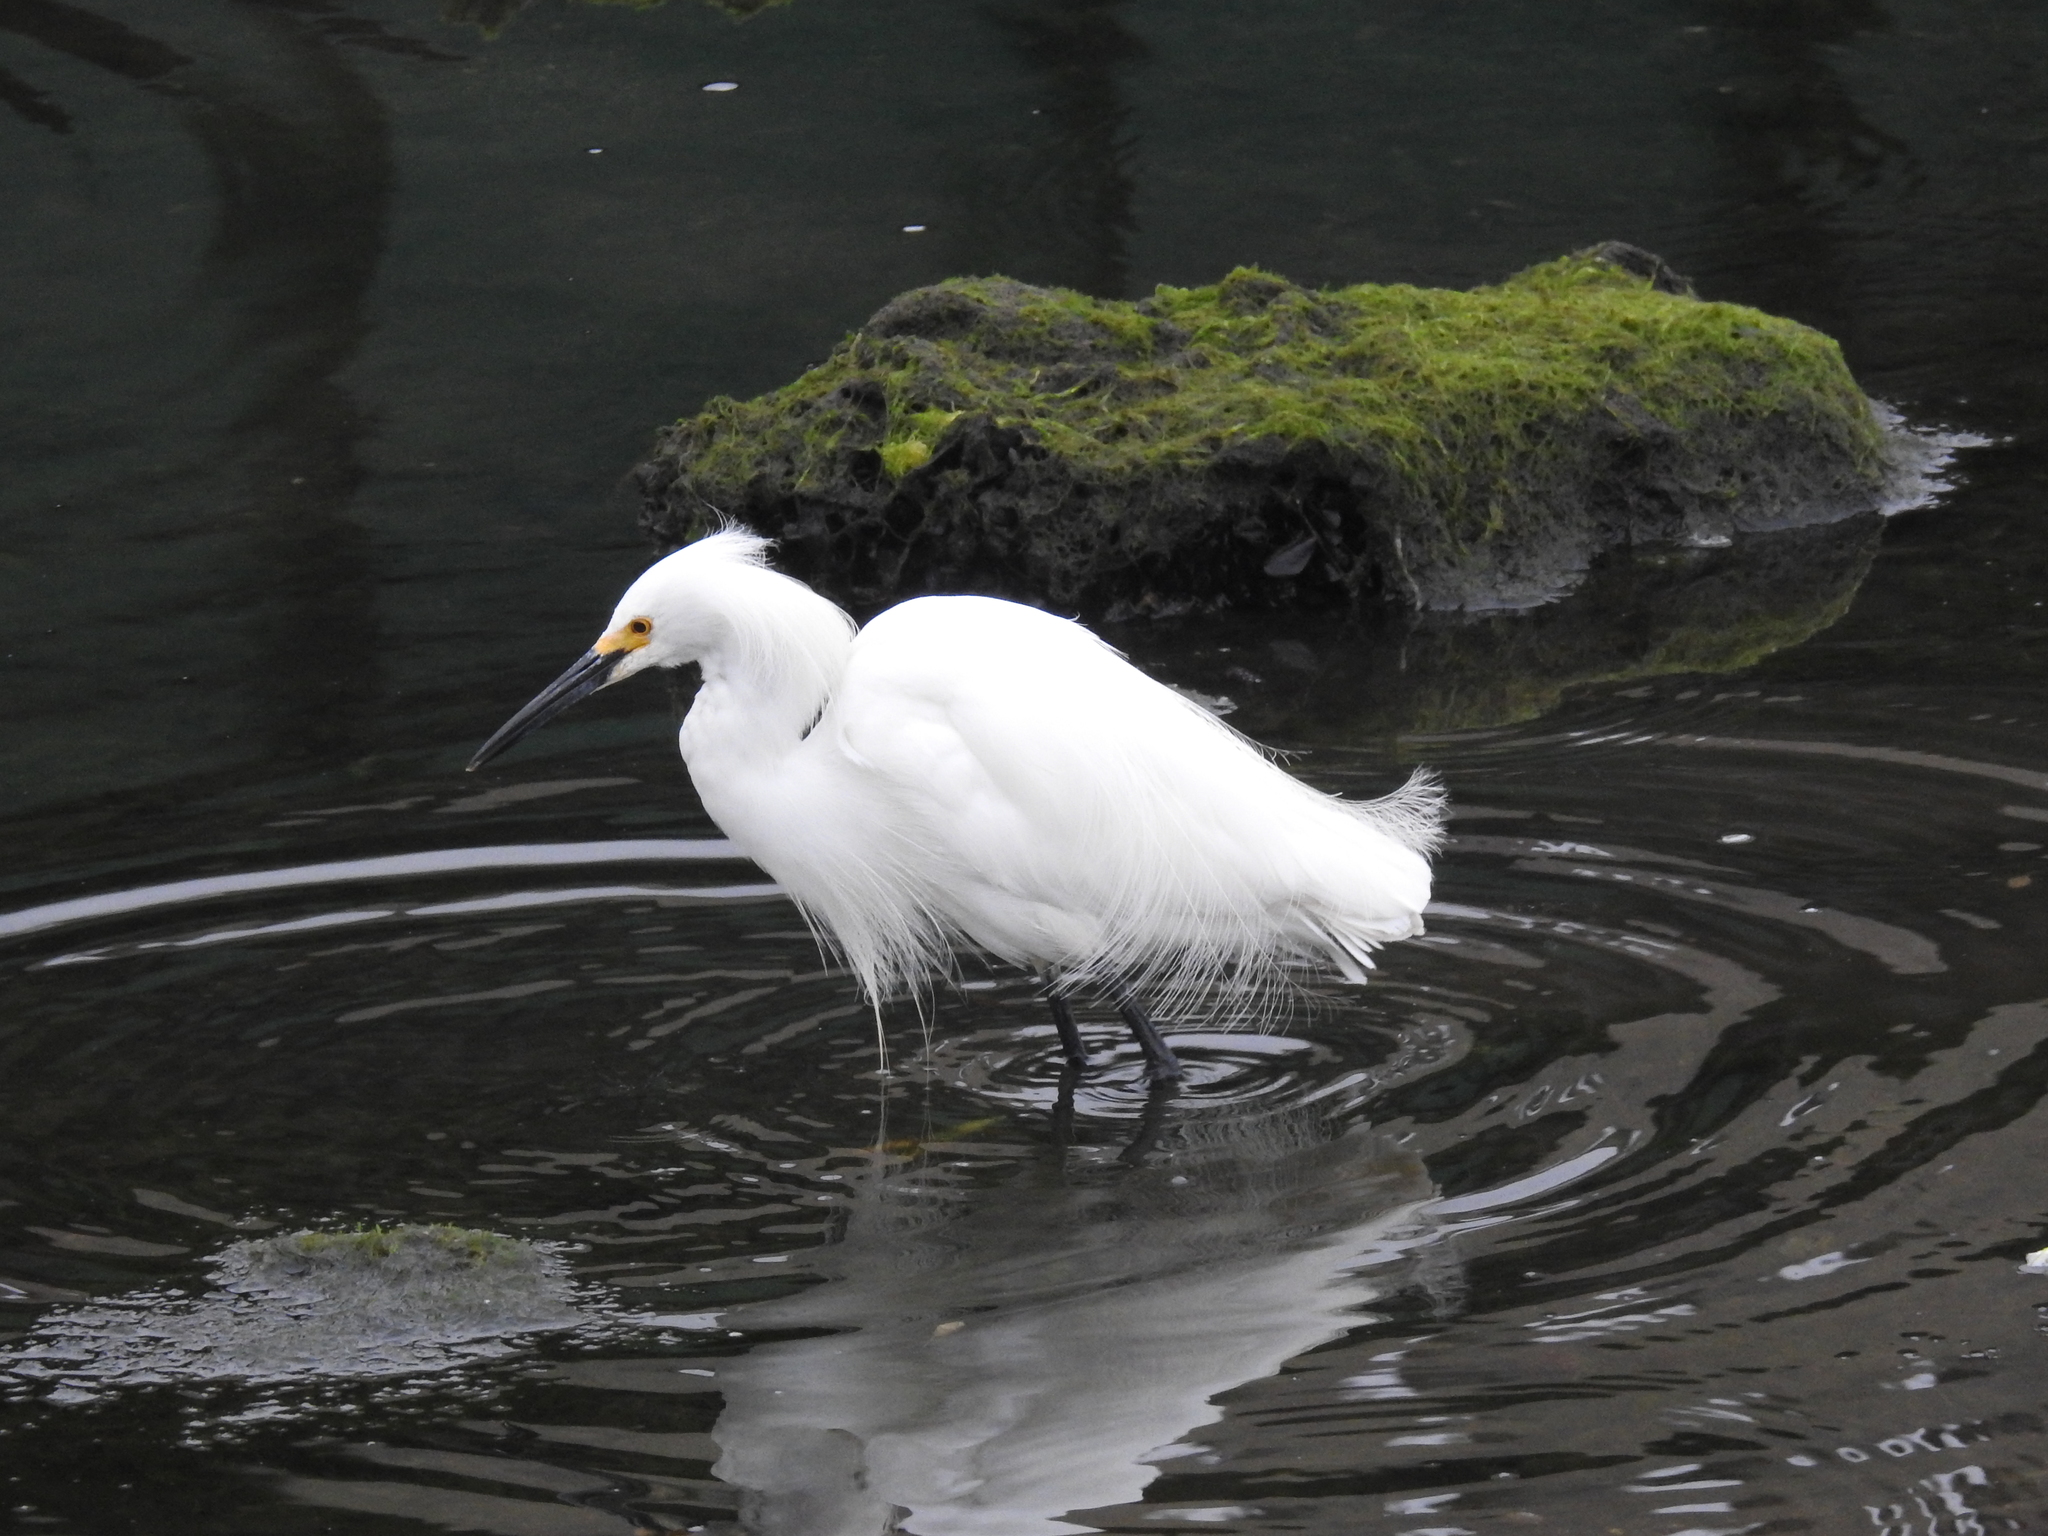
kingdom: Animalia
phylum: Chordata
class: Aves
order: Pelecaniformes
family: Ardeidae
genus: Egretta
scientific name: Egretta thula
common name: Snowy egret
